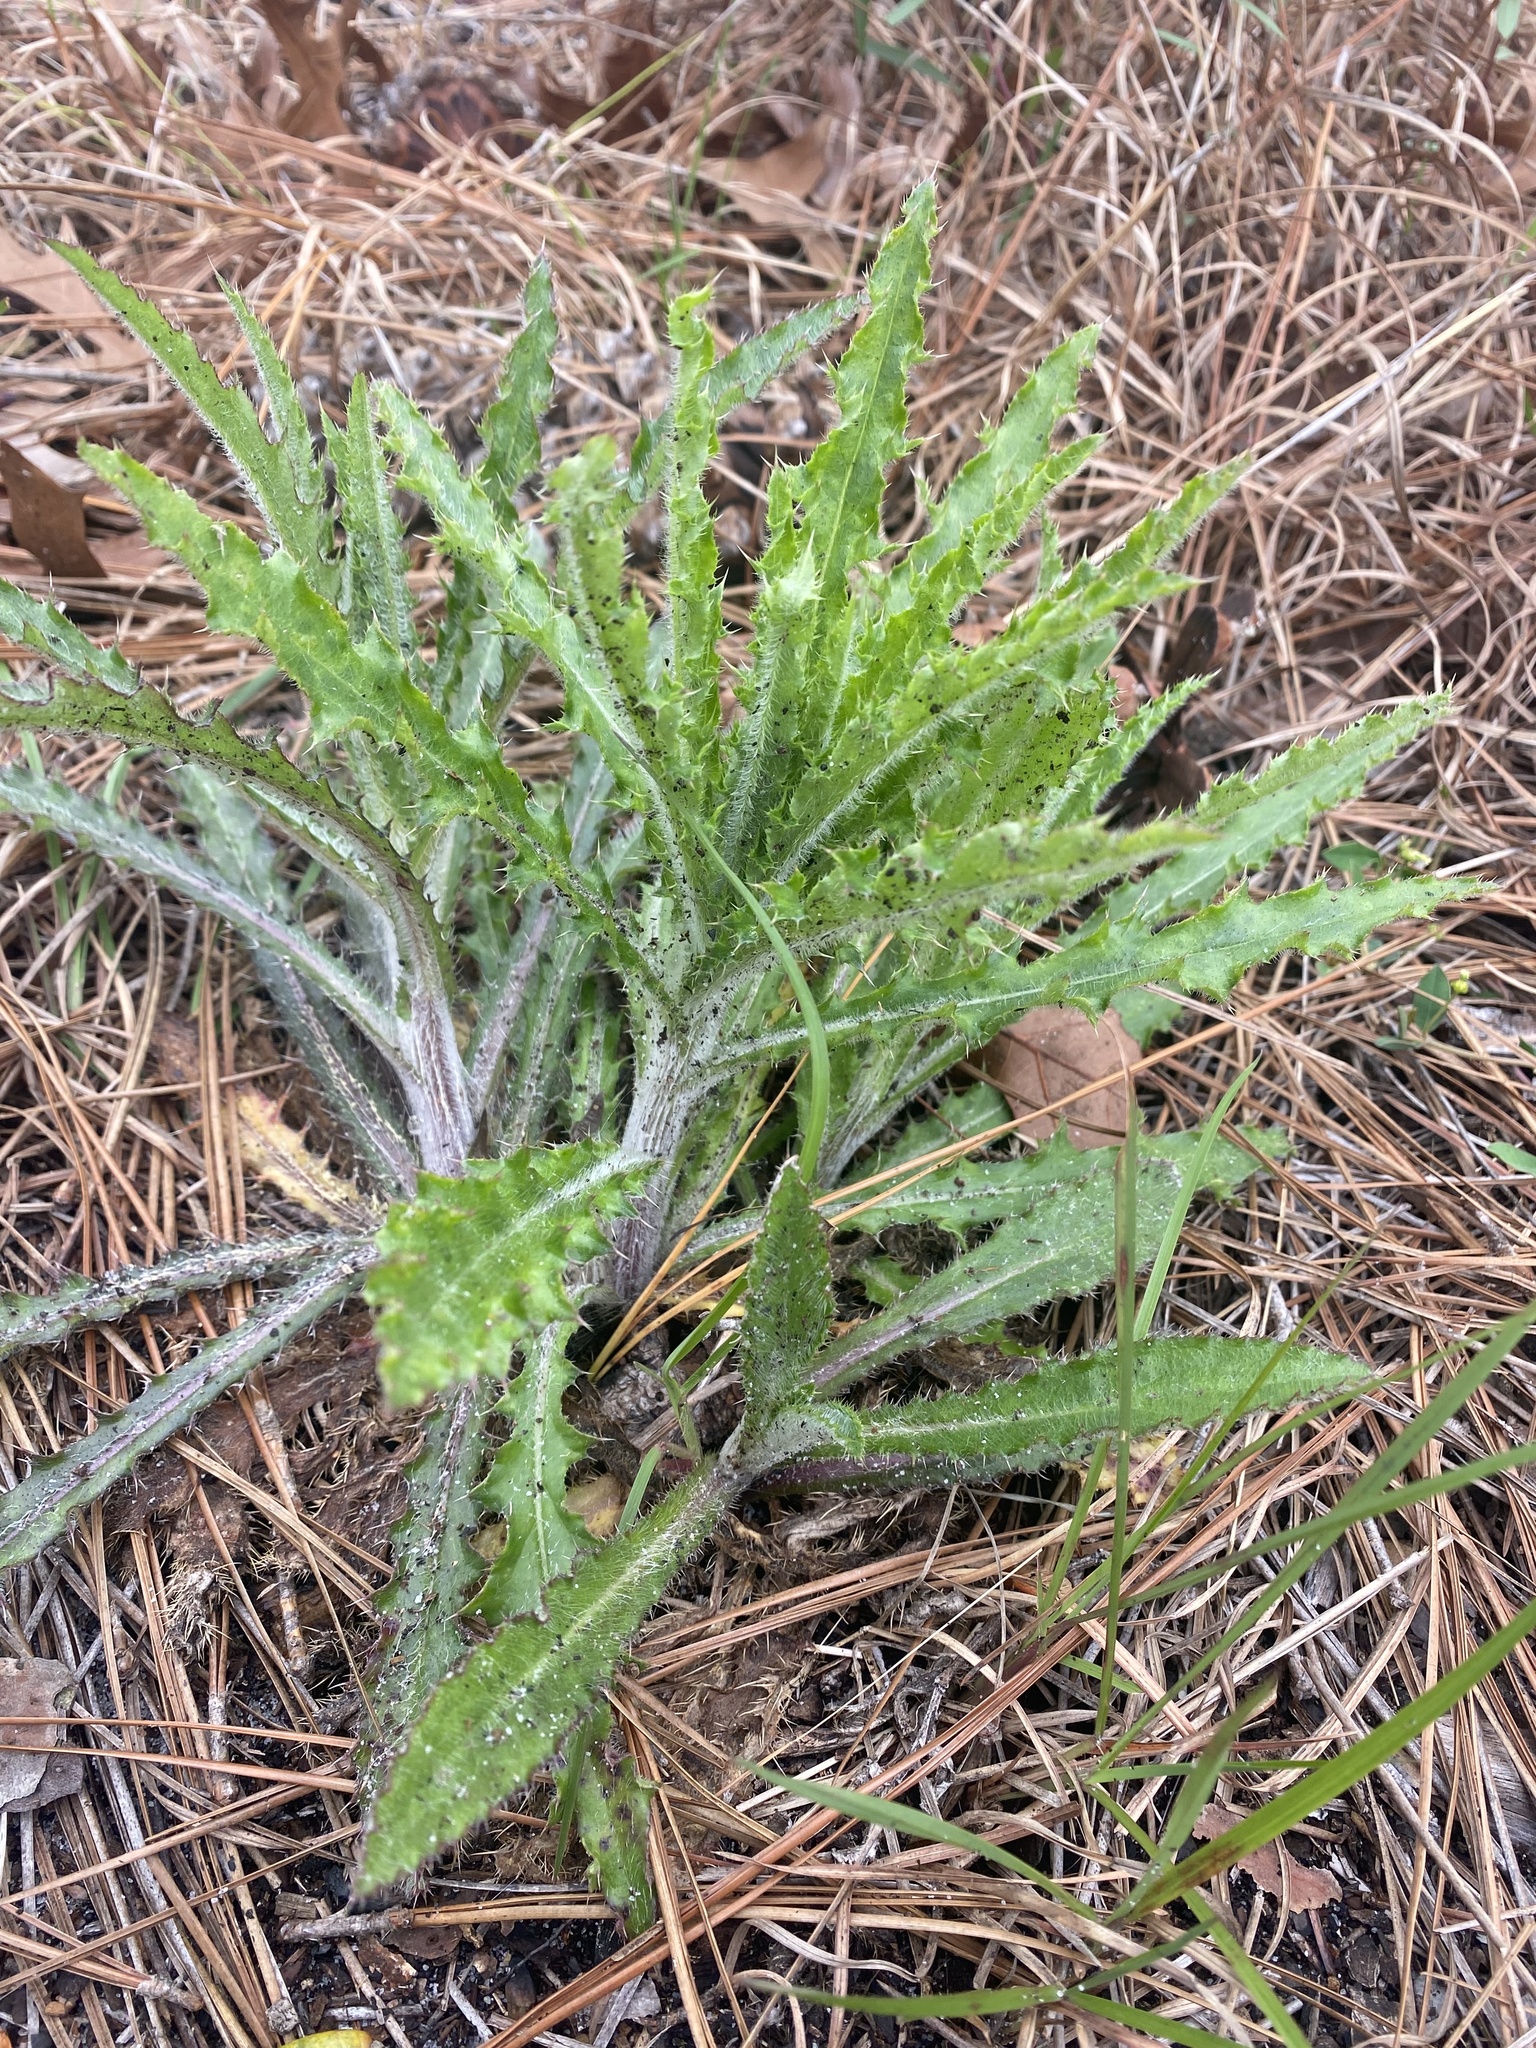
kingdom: Plantae
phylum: Tracheophyta
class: Magnoliopsida
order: Asterales
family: Asteraceae
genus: Cirsium
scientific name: Cirsium repandum
